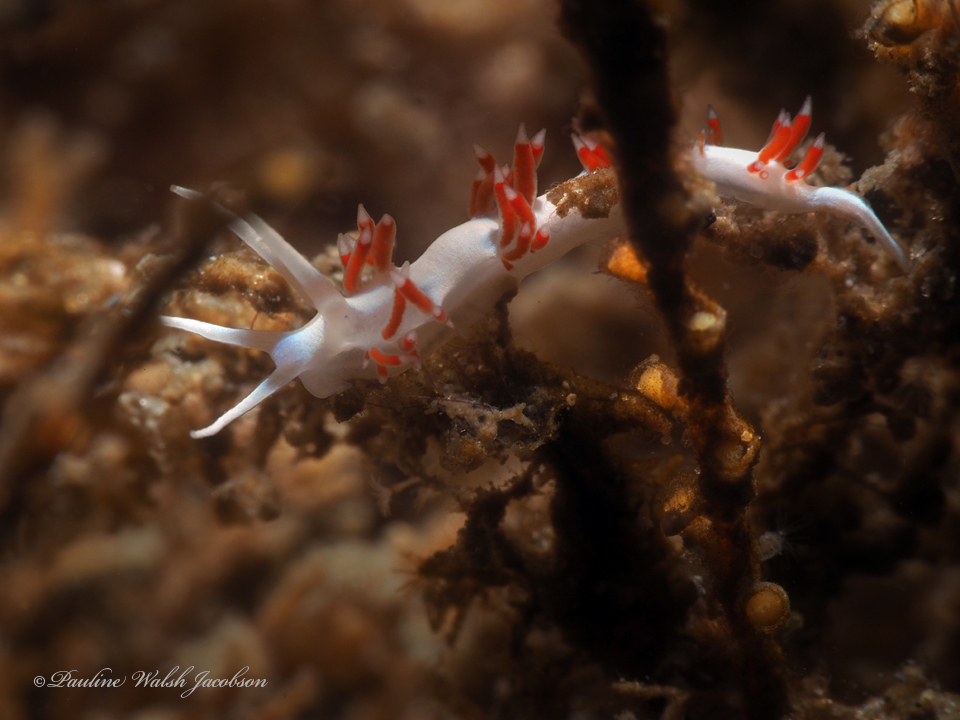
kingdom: Animalia
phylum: Mollusca
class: Gastropoda
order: Nudibranchia
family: Flabellinidae
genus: Flabellina
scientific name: Flabellina dushia
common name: Dushia flabellina
